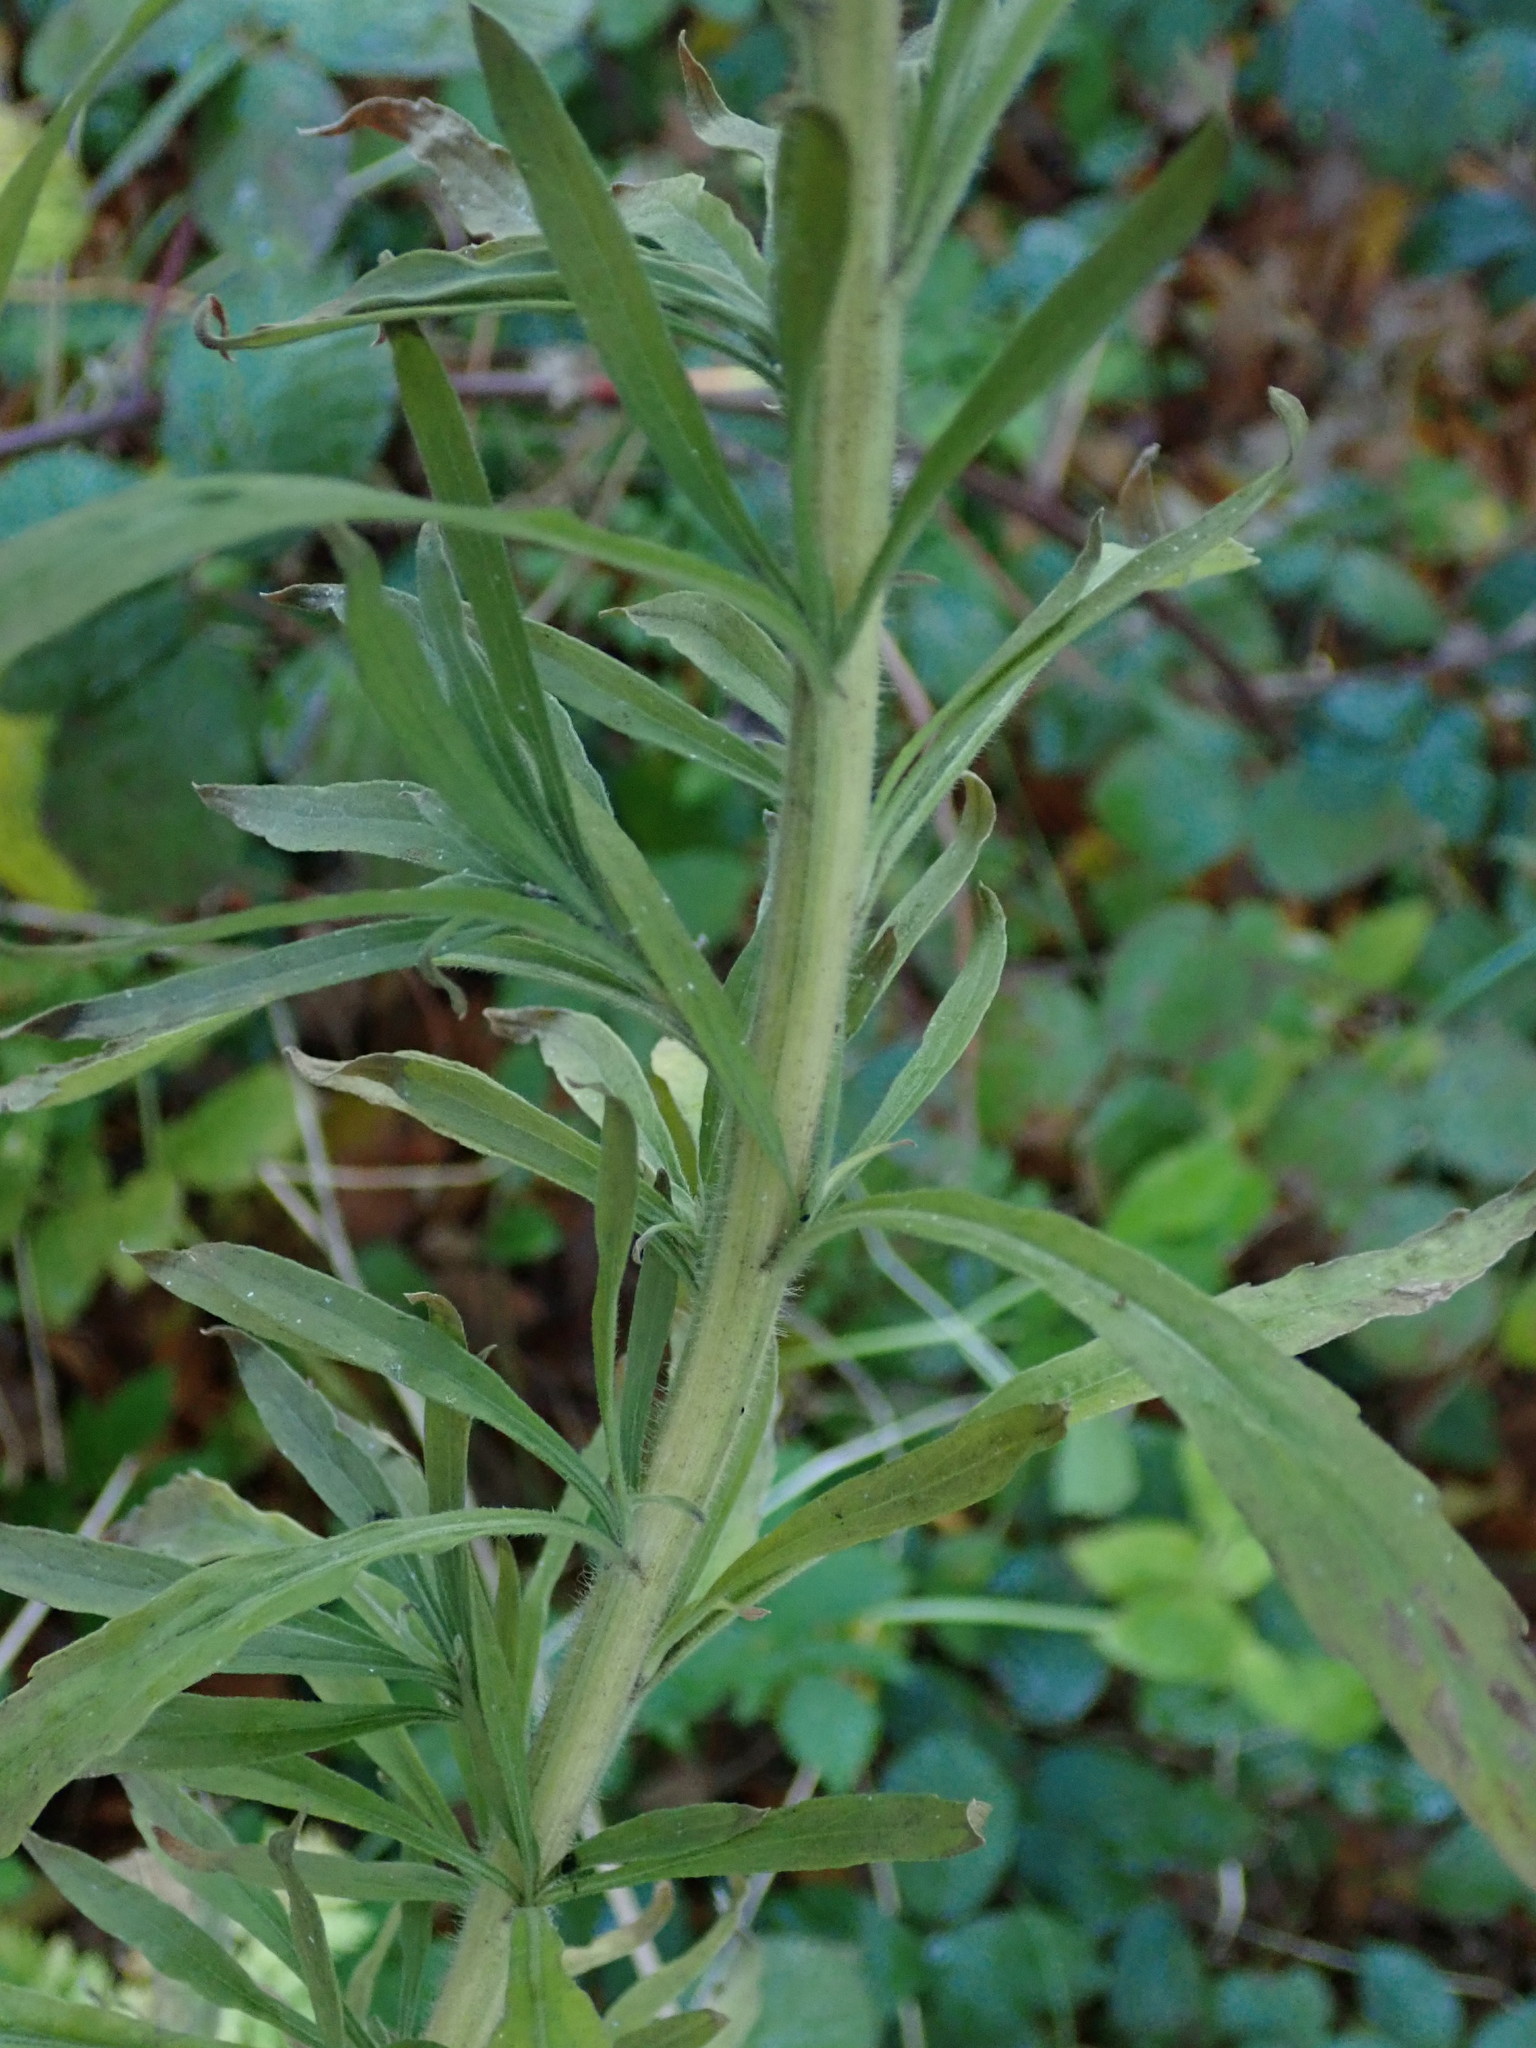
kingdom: Plantae
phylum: Tracheophyta
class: Magnoliopsida
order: Asterales
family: Asteraceae
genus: Erigeron
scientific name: Erigeron sumatrensis
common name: Daisy
